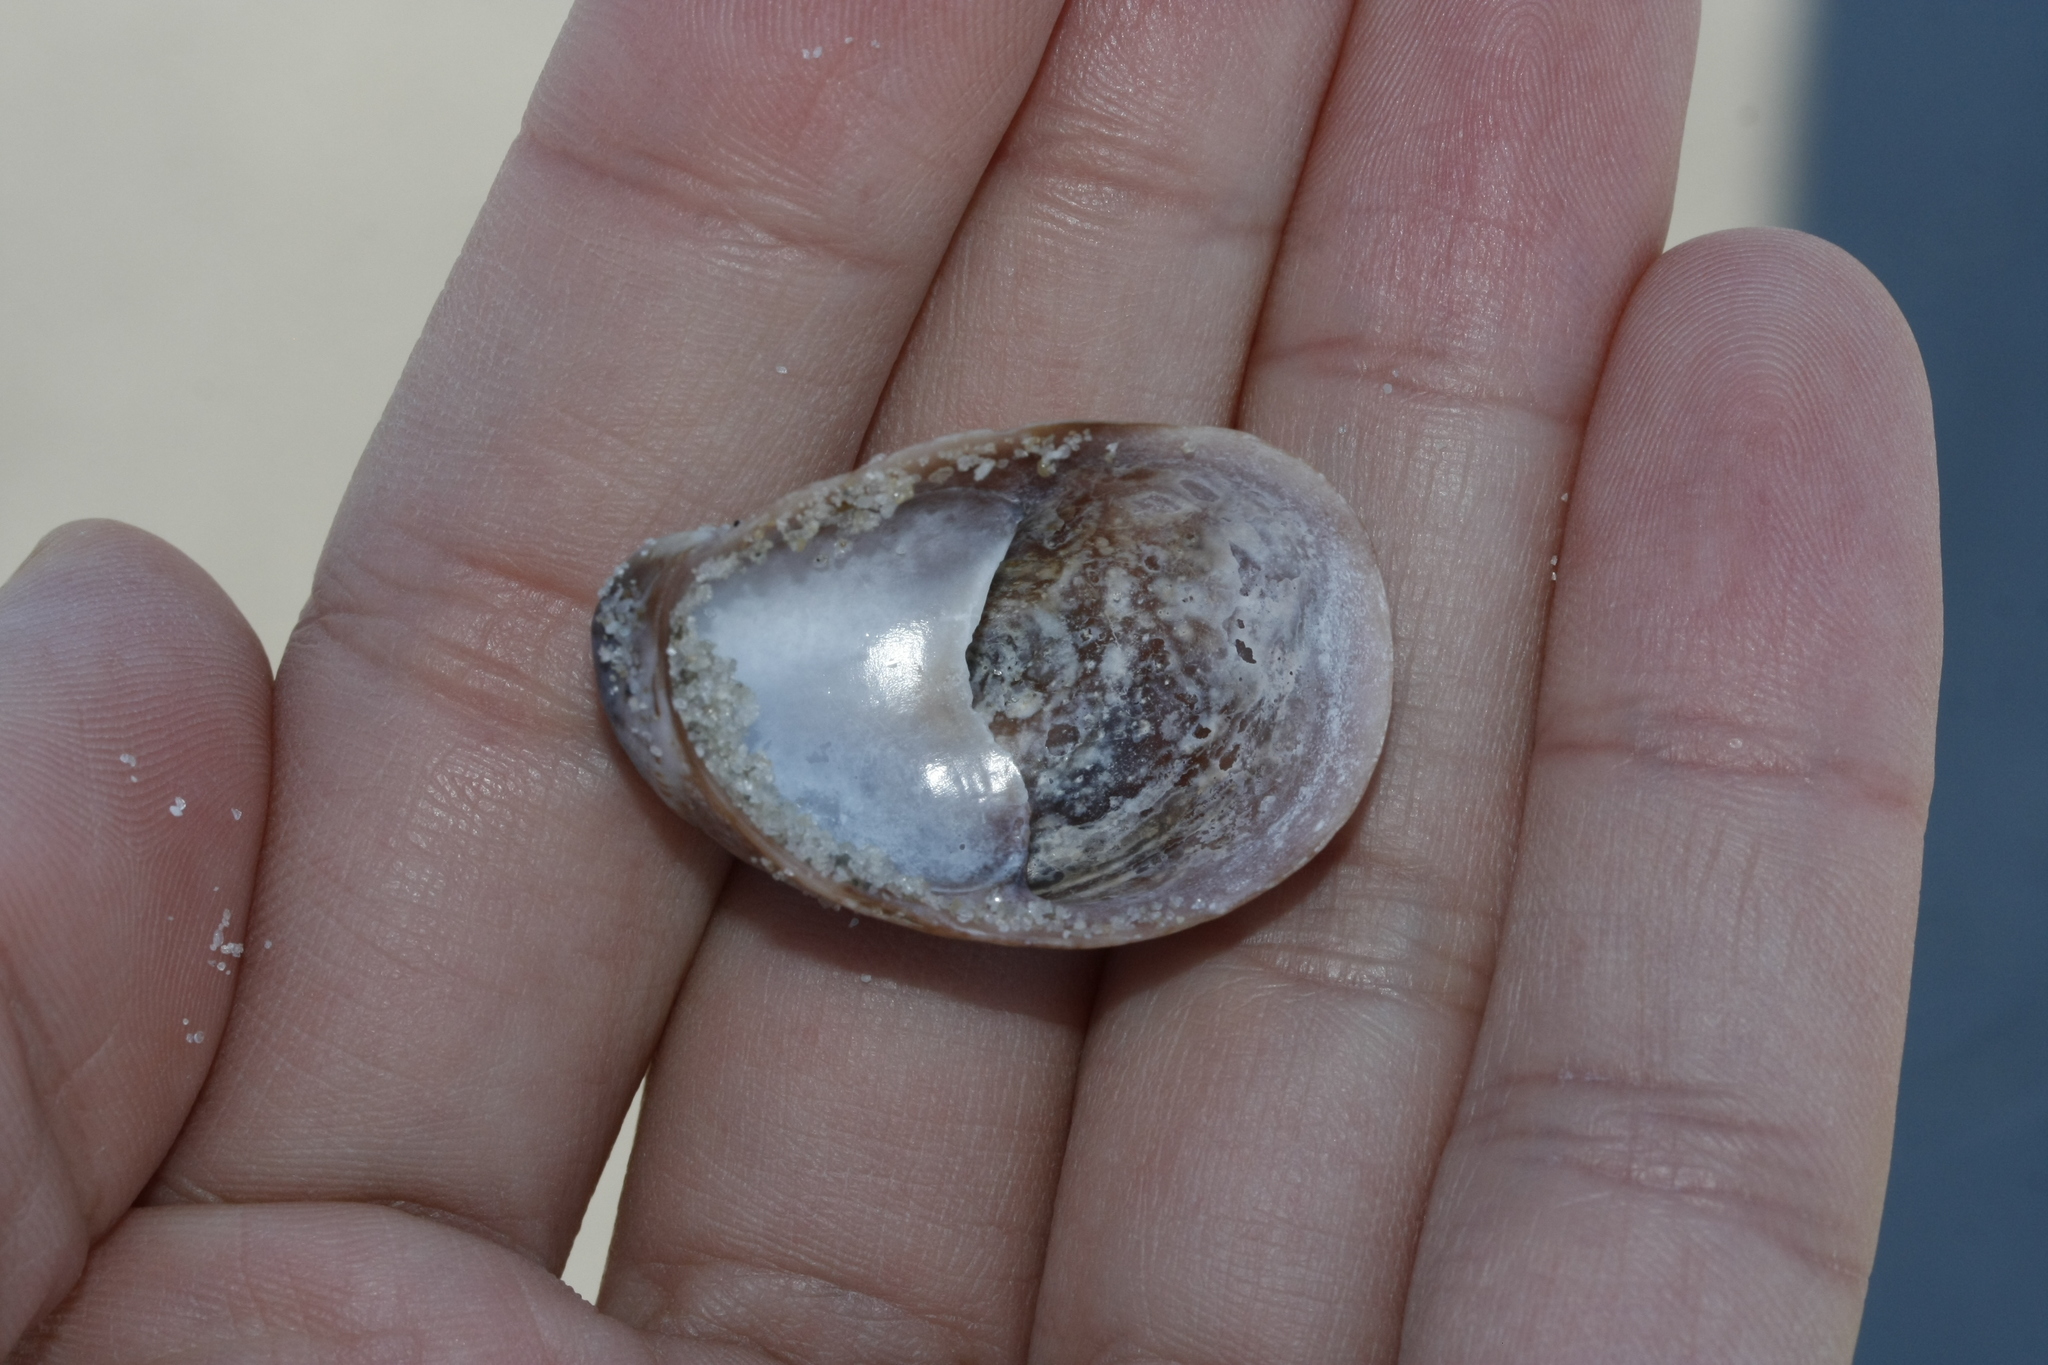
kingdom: Animalia
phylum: Mollusca
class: Gastropoda
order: Littorinimorpha
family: Calyptraeidae
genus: Crepidula
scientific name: Crepidula fornicata
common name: Slipper limpet
